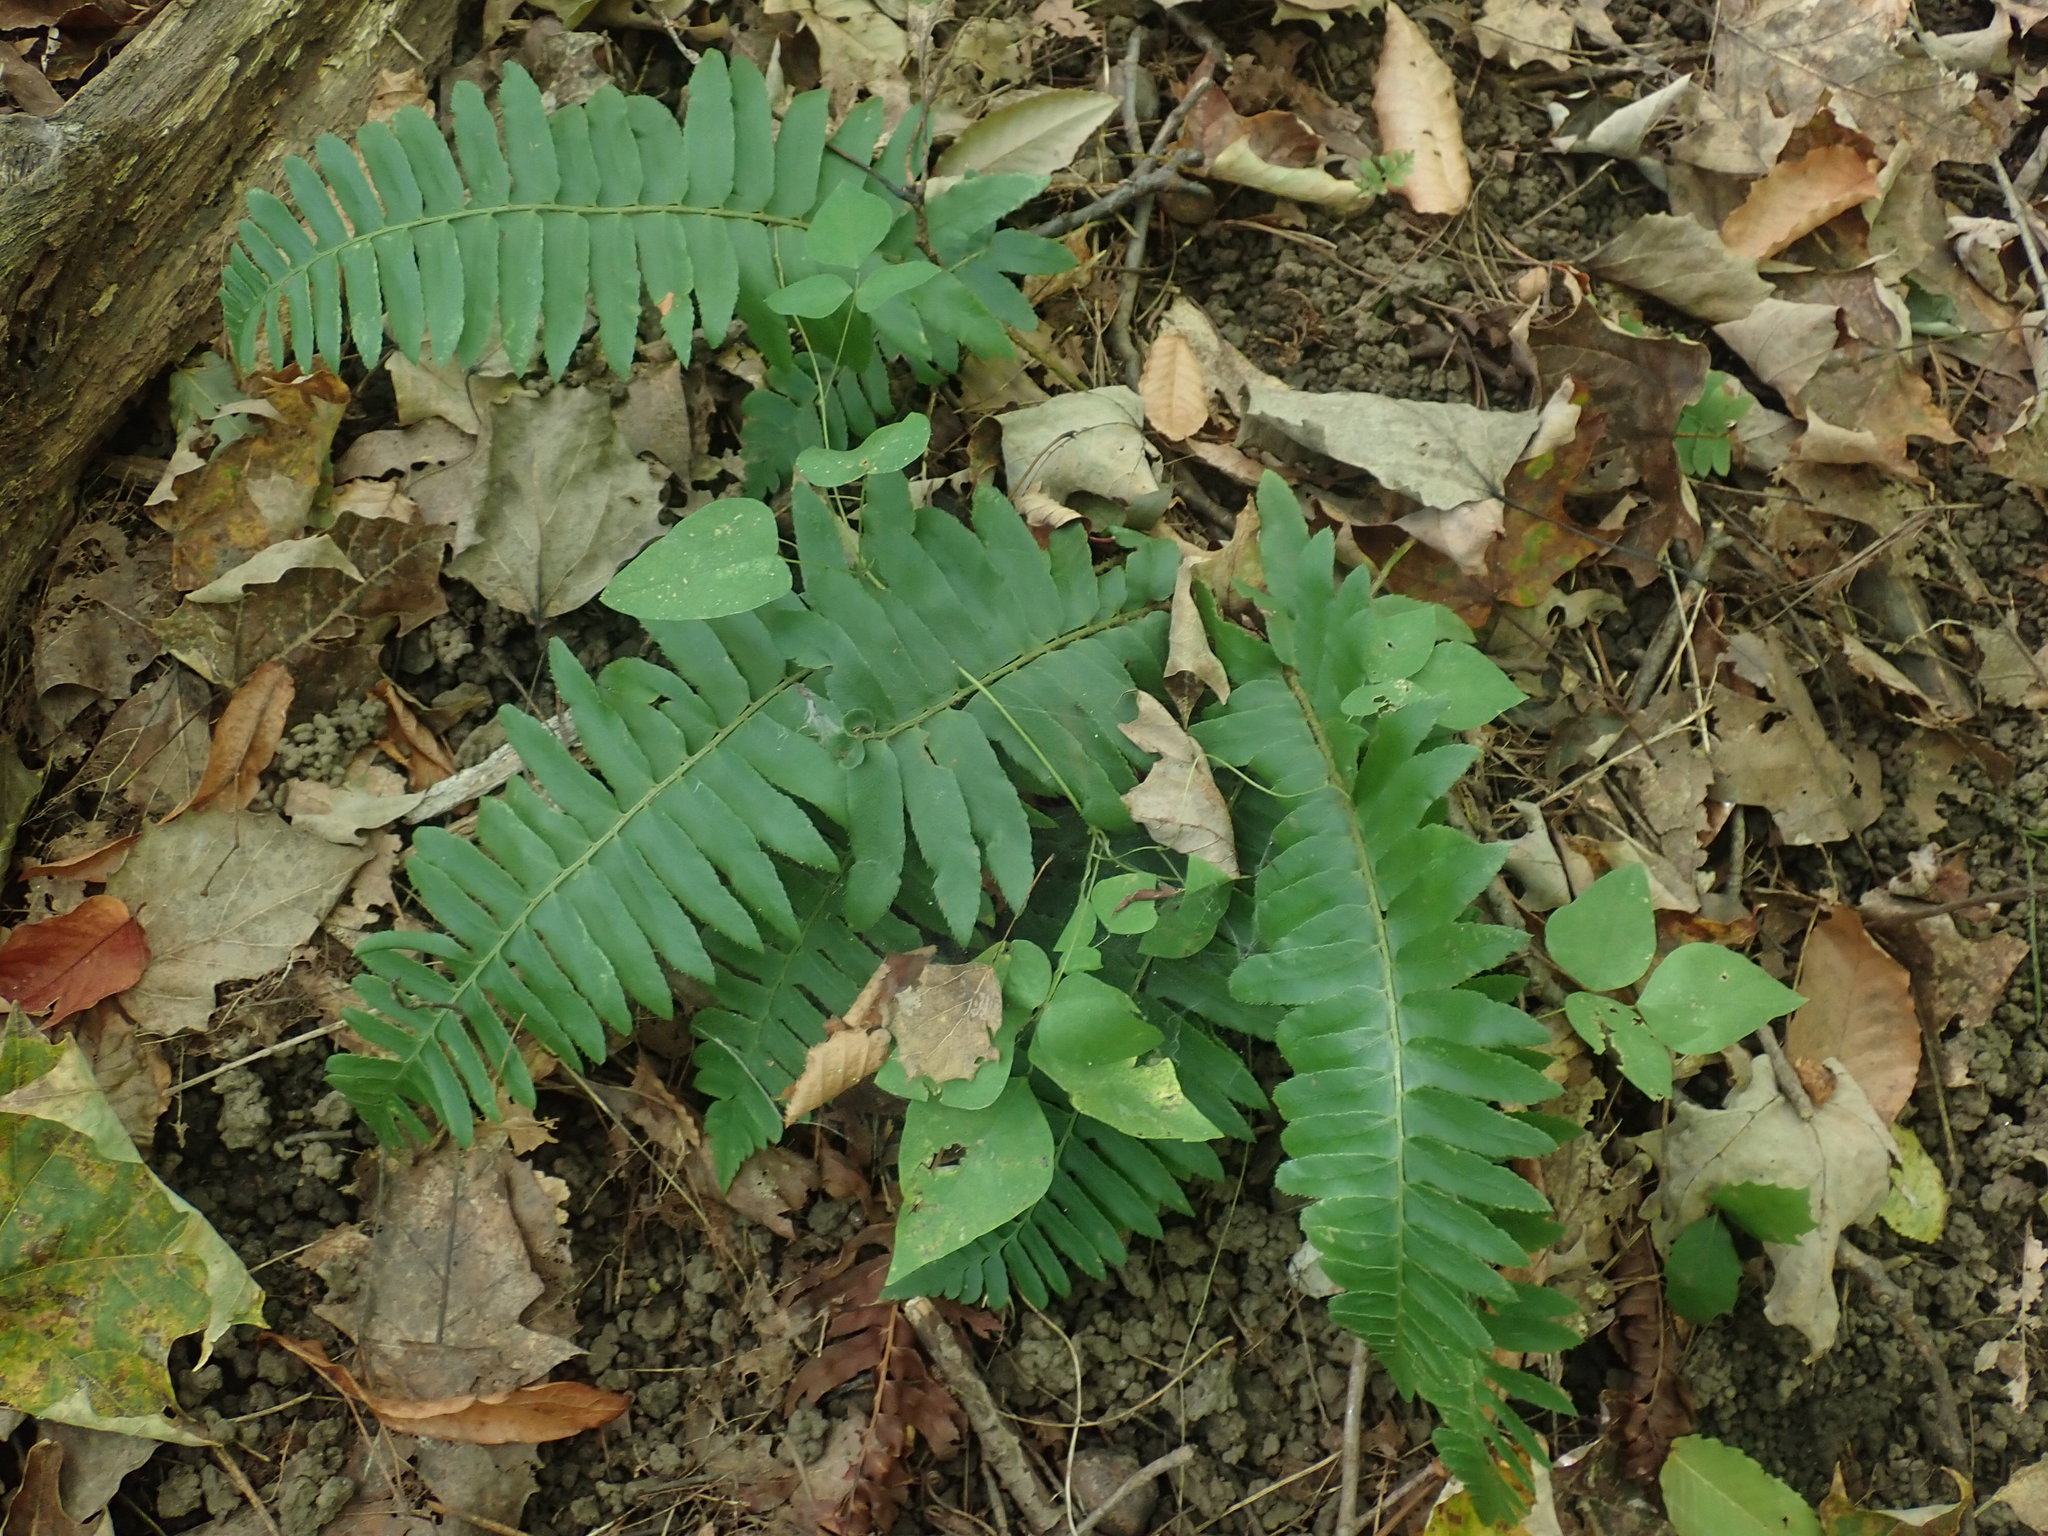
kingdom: Plantae
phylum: Tracheophyta
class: Polypodiopsida
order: Polypodiales
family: Dryopteridaceae
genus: Polystichum
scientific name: Polystichum acrostichoides
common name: Christmas fern
